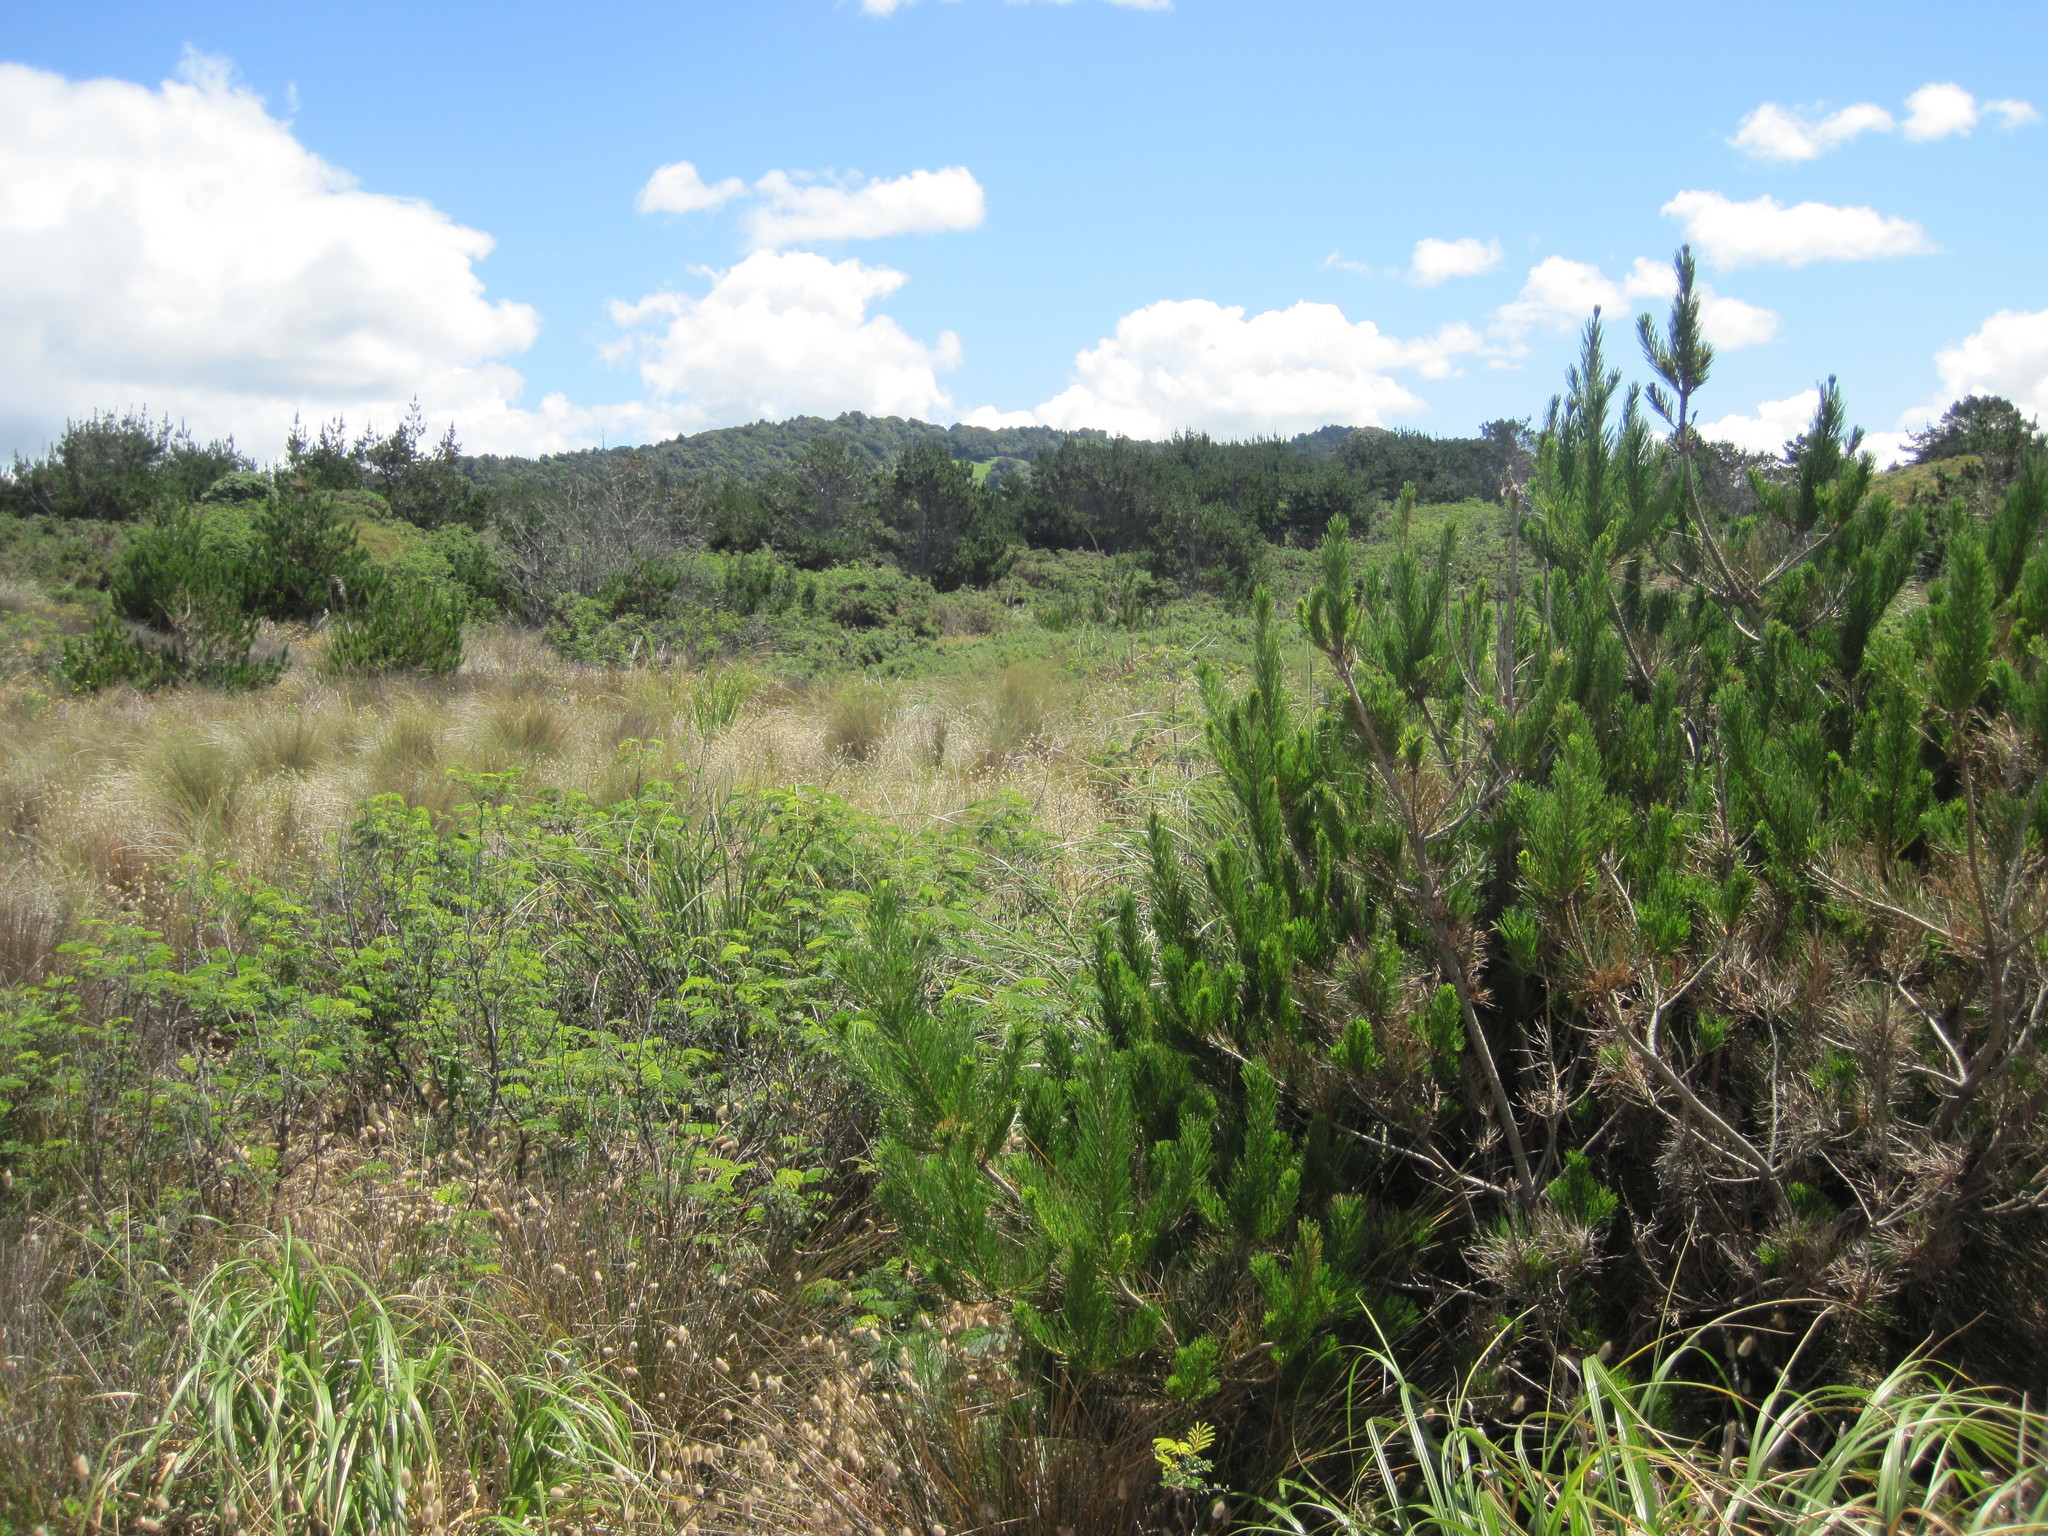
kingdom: Plantae
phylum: Tracheophyta
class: Pinopsida
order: Pinales
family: Pinaceae
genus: Pinus
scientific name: Pinus radiata
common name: Monterey pine
